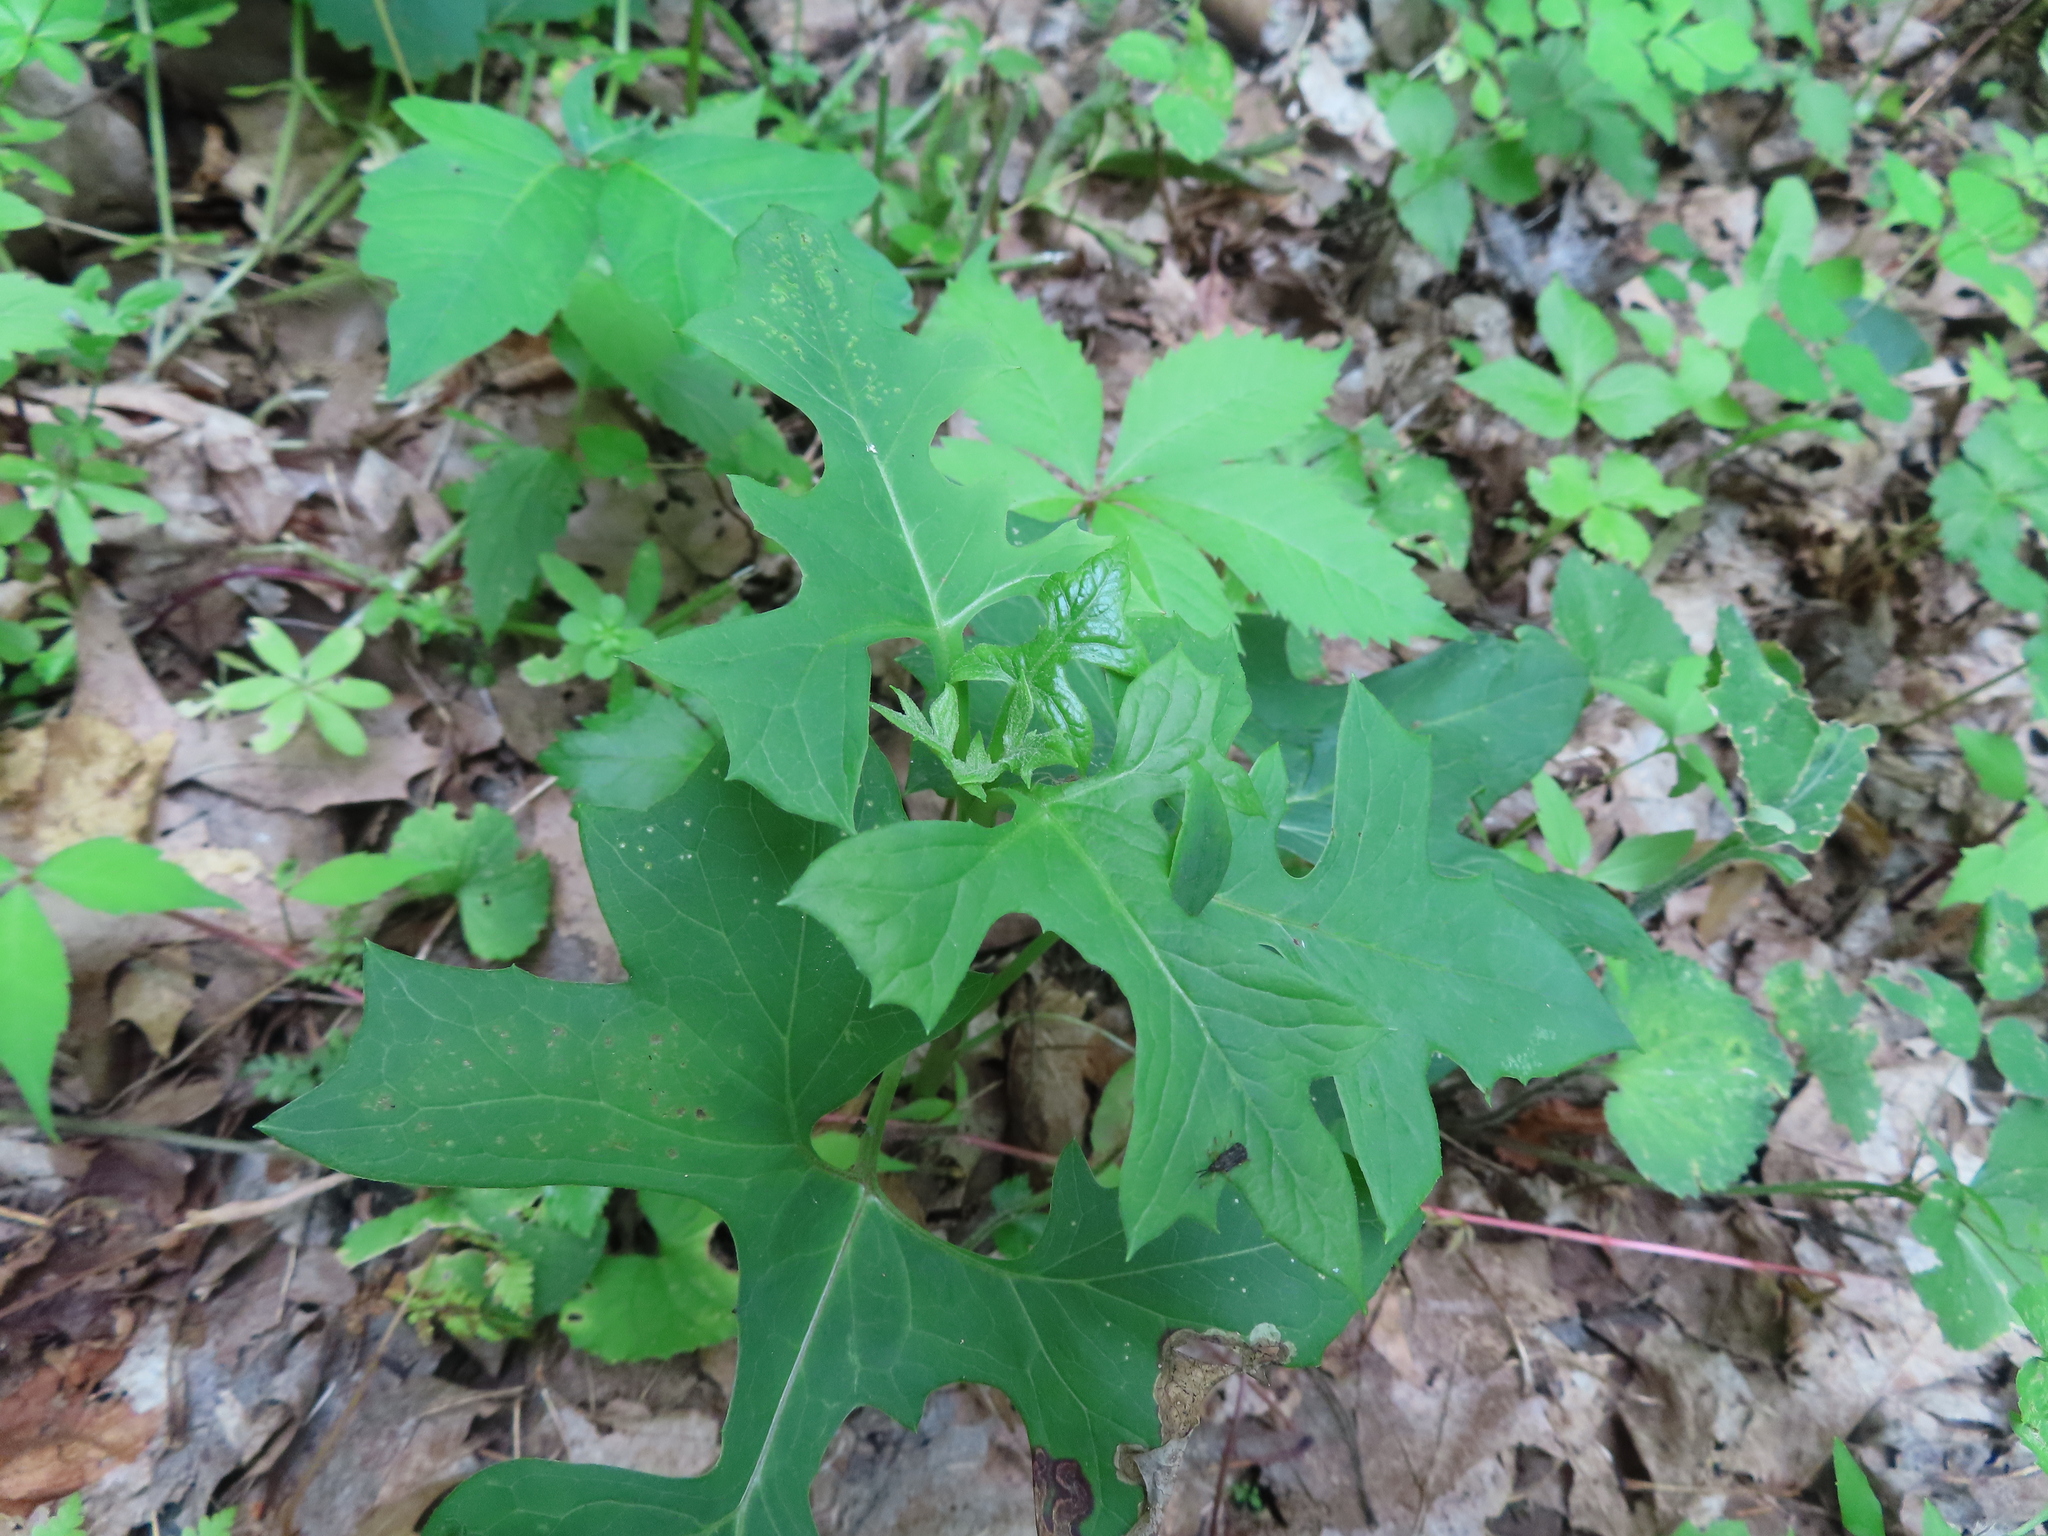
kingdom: Plantae
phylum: Tracheophyta
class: Magnoliopsida
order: Asterales
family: Asteraceae
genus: Nabalus
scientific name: Nabalus albus
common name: White rattlesnakeroot
